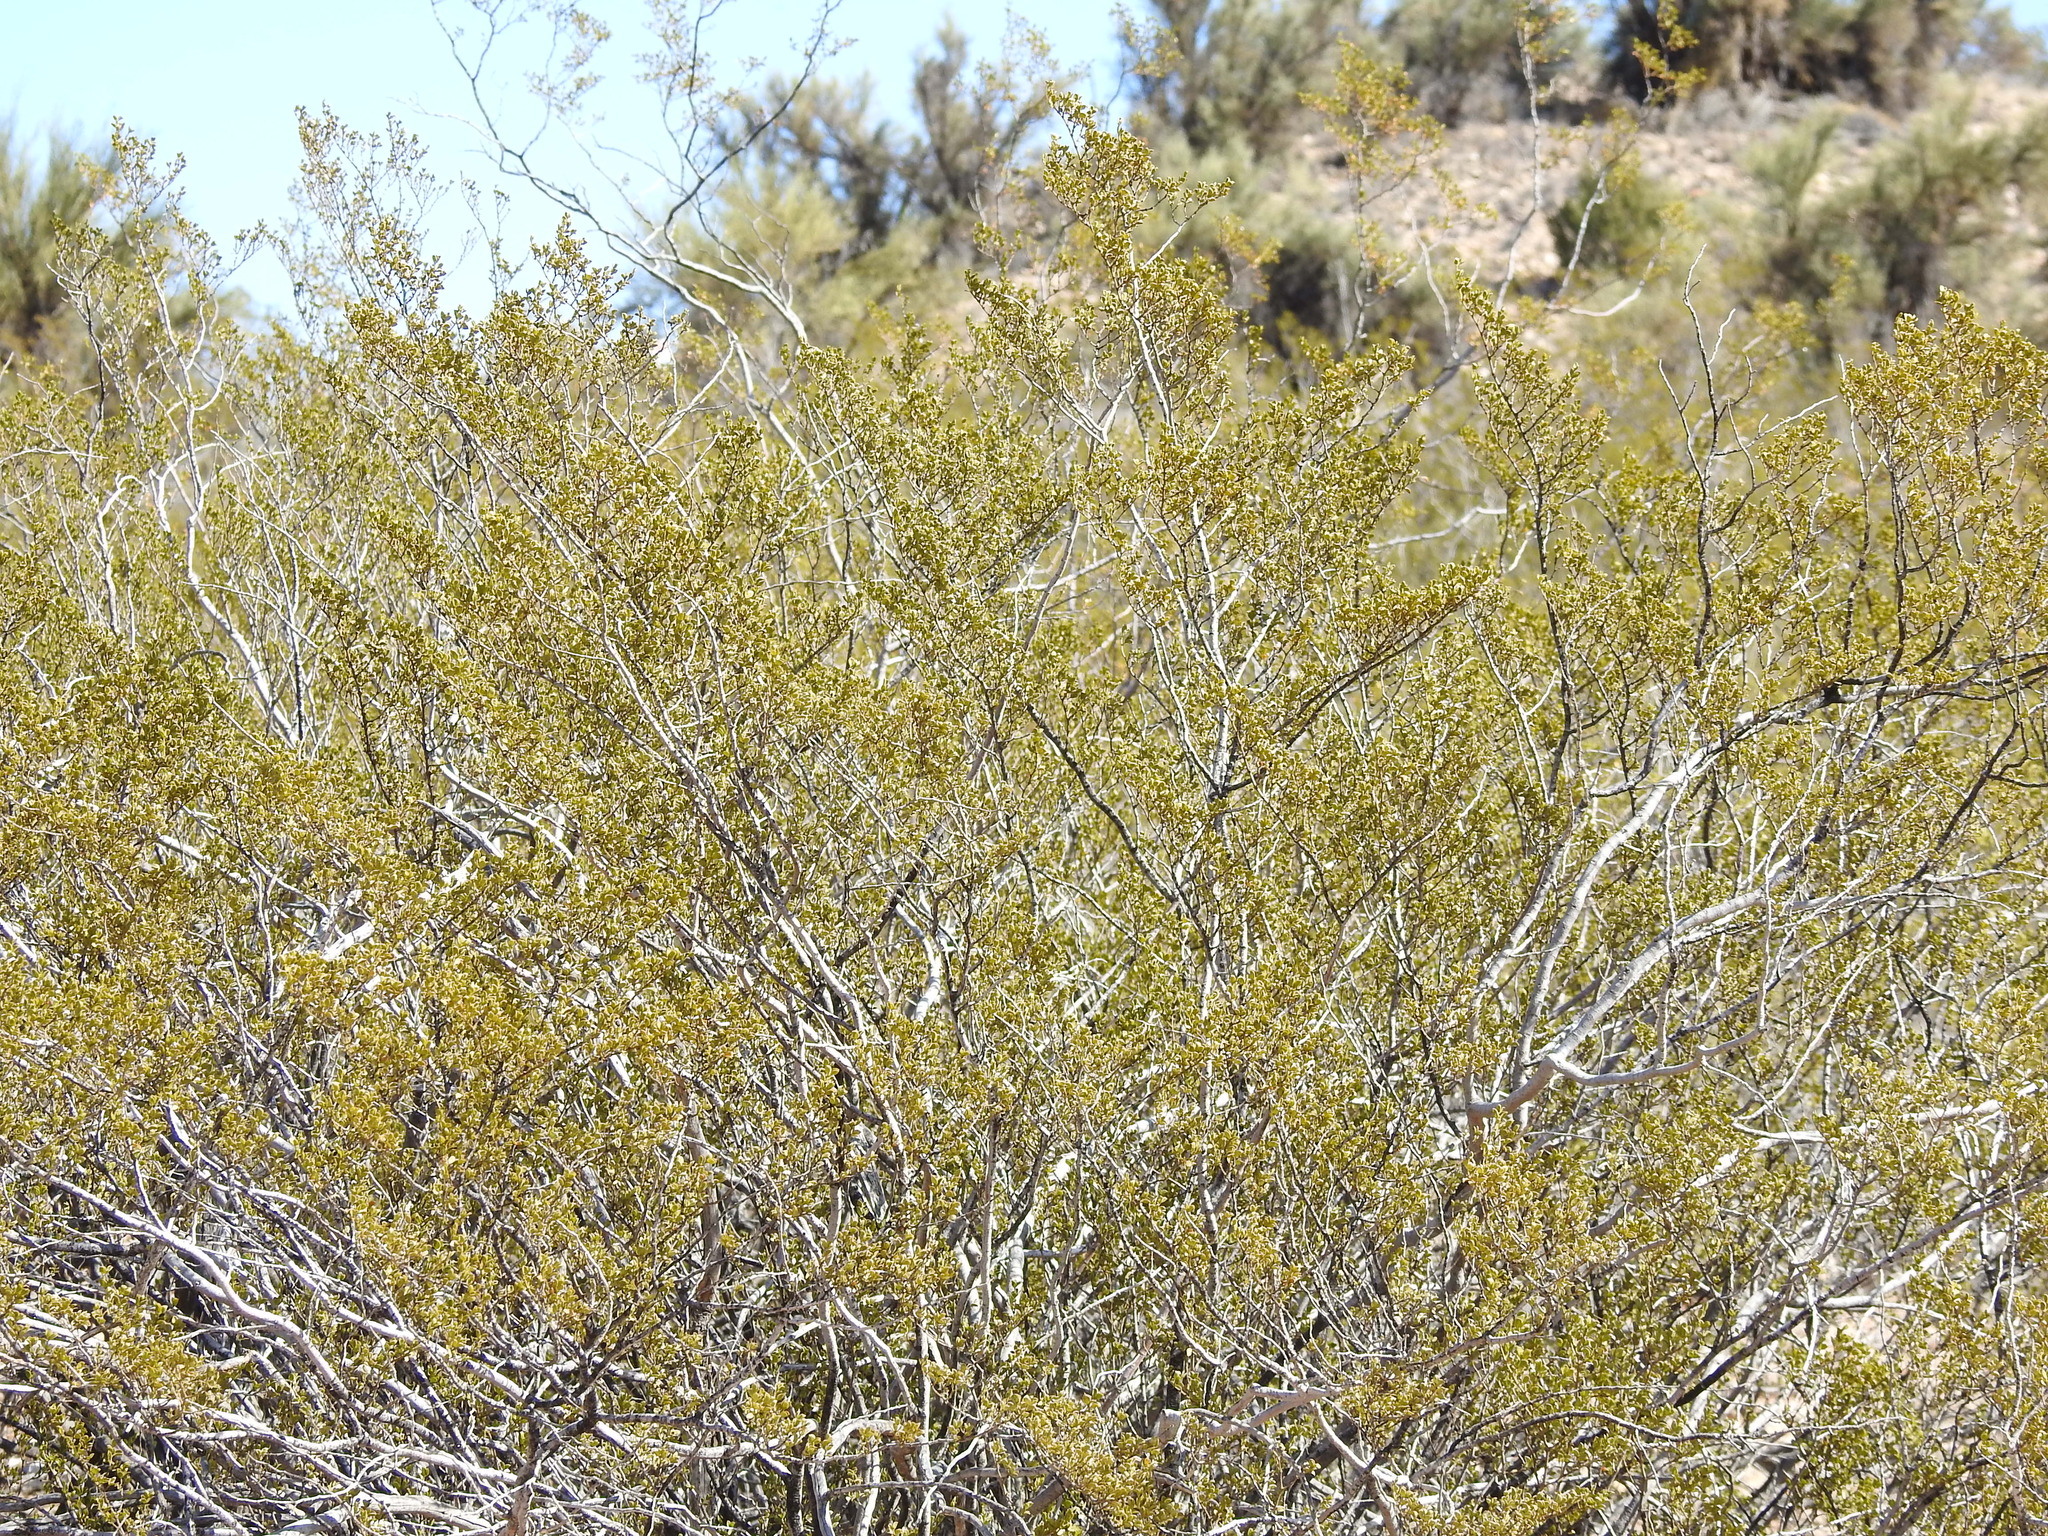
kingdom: Plantae
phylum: Tracheophyta
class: Magnoliopsida
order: Zygophyllales
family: Zygophyllaceae
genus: Larrea
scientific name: Larrea tridentata
